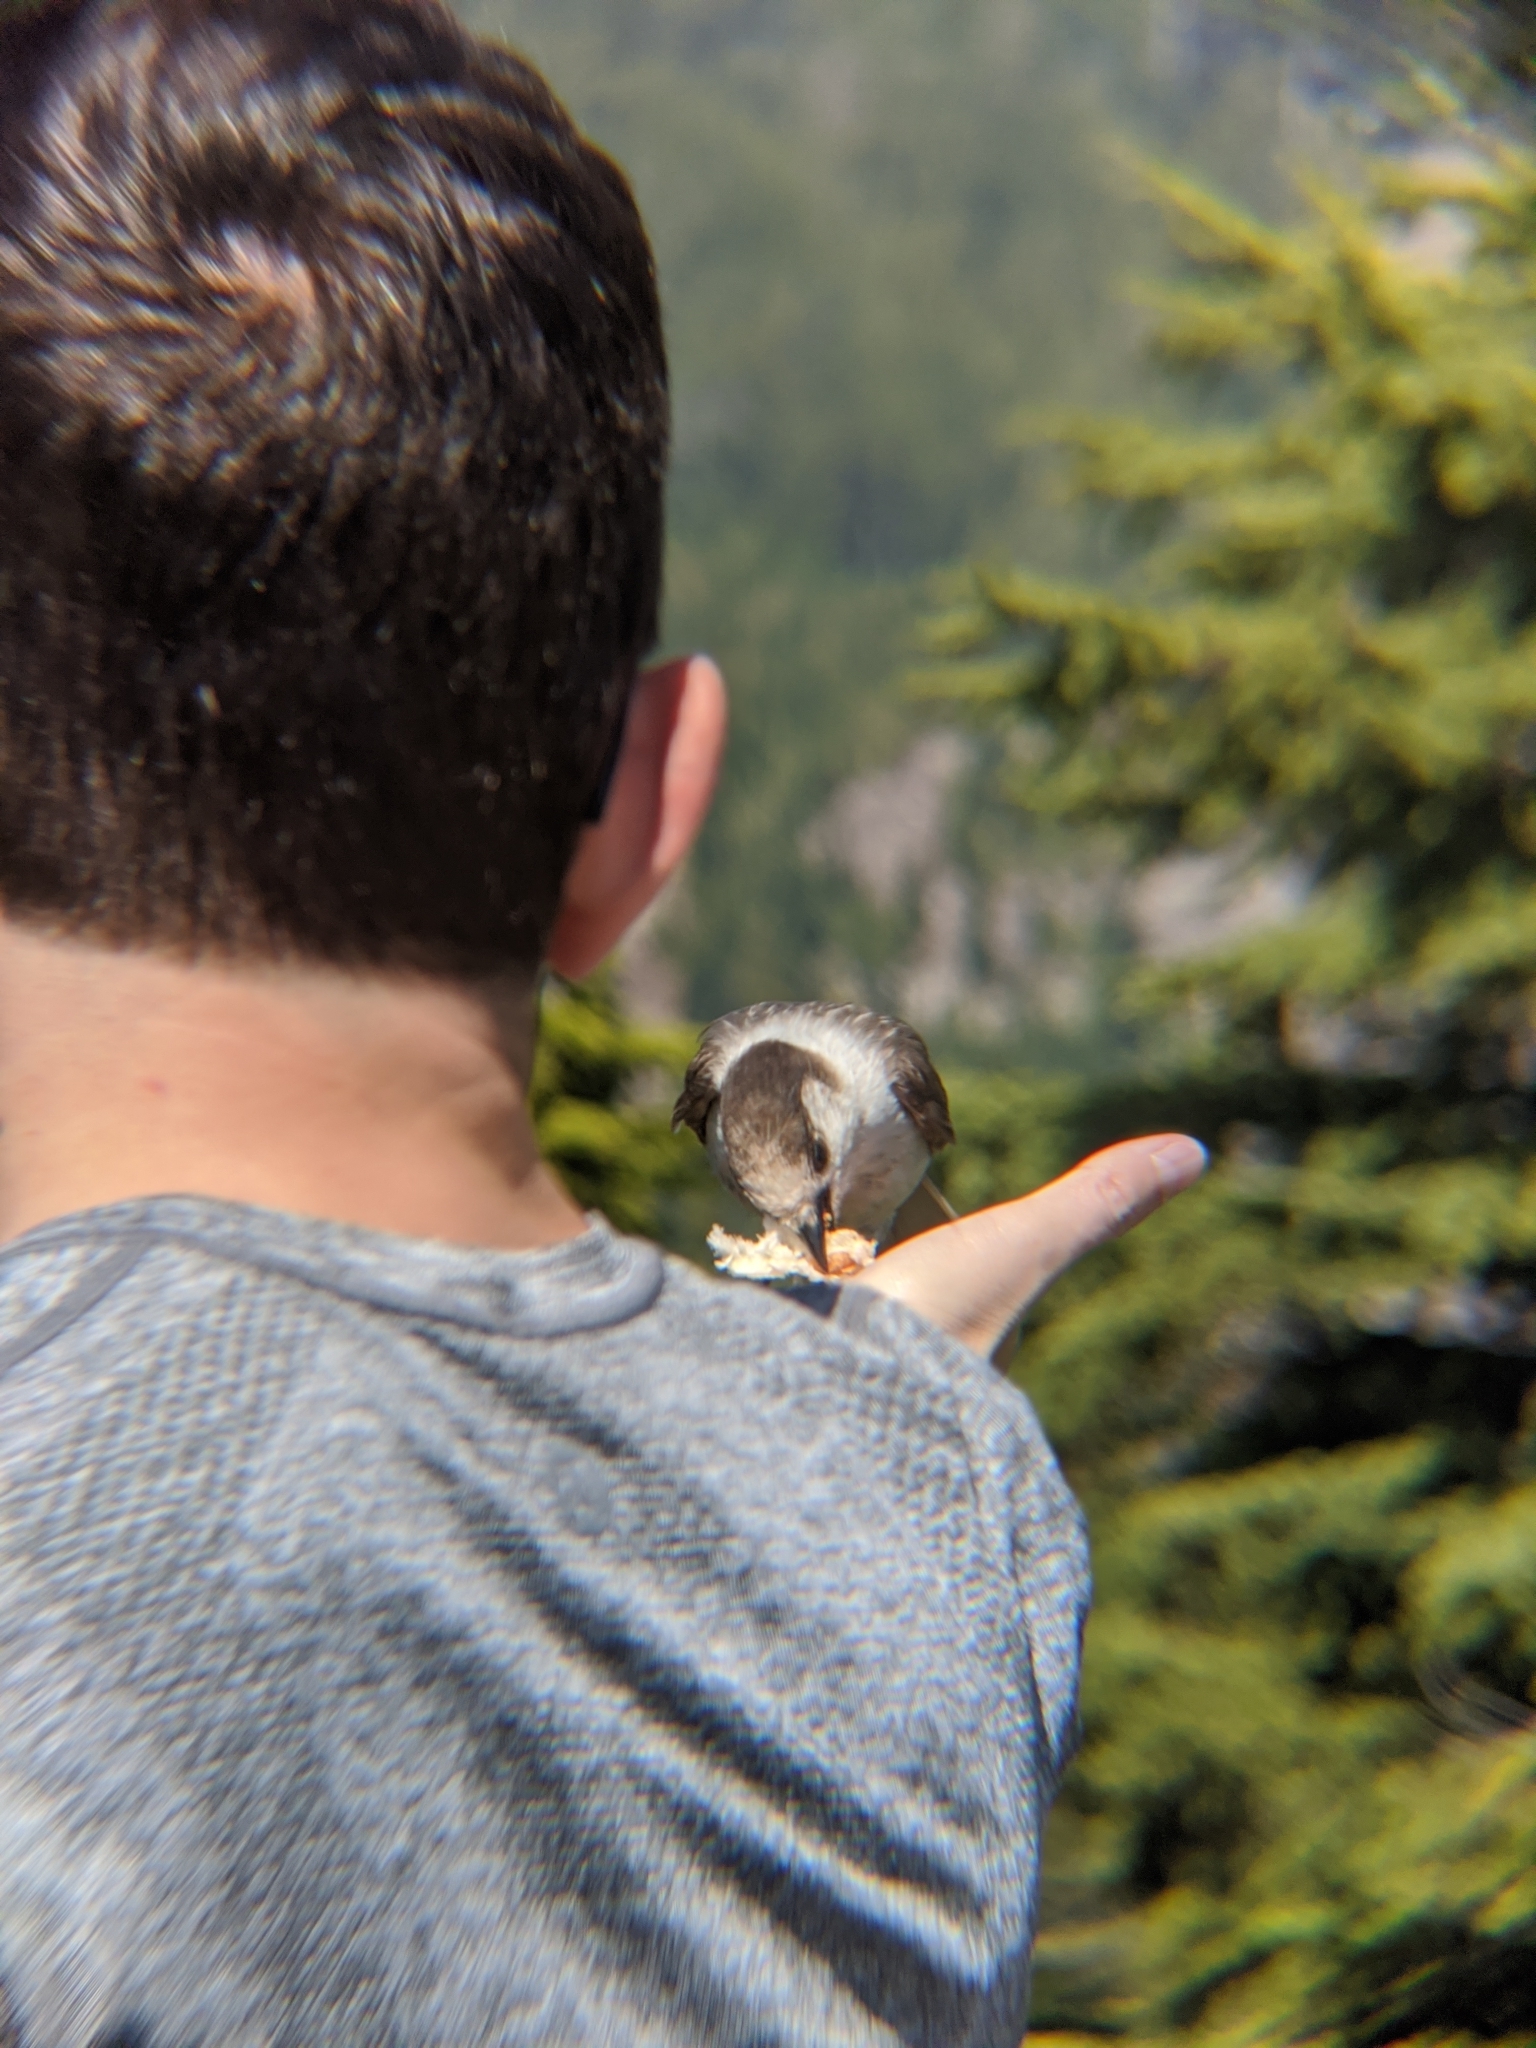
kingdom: Animalia
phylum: Chordata
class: Aves
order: Passeriformes
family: Corvidae
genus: Perisoreus
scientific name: Perisoreus canadensis
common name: Gray jay
